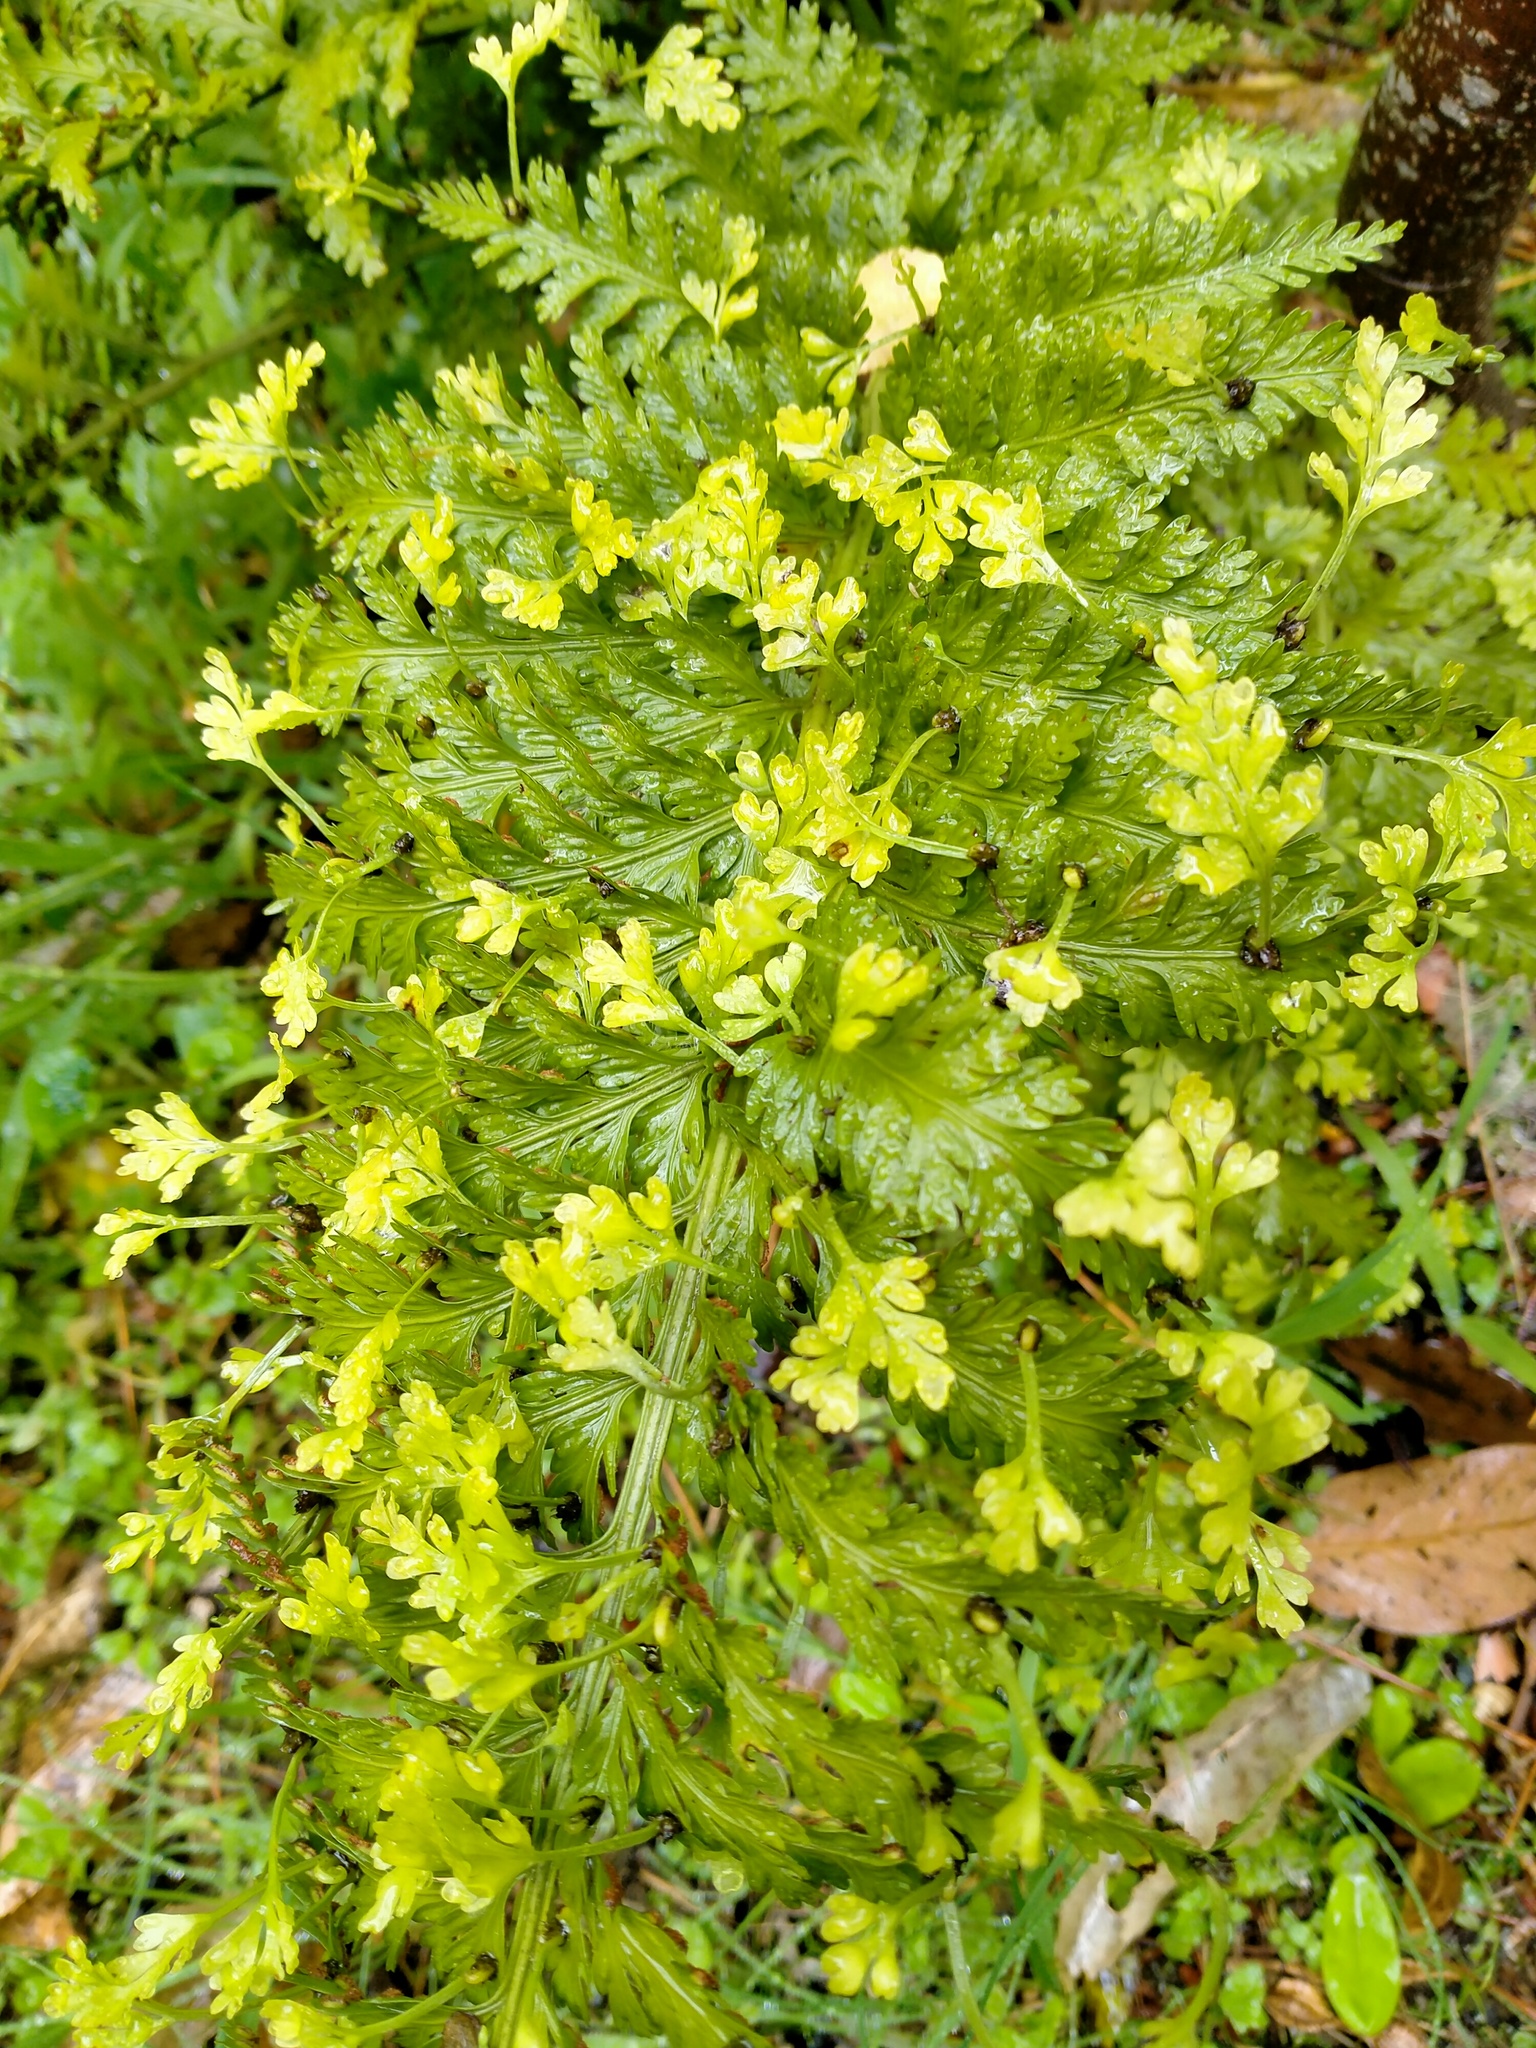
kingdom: Plantae
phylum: Tracheophyta
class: Polypodiopsida
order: Polypodiales
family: Aspleniaceae
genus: Asplenium
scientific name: Asplenium bulbiferum
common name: Mother fern
